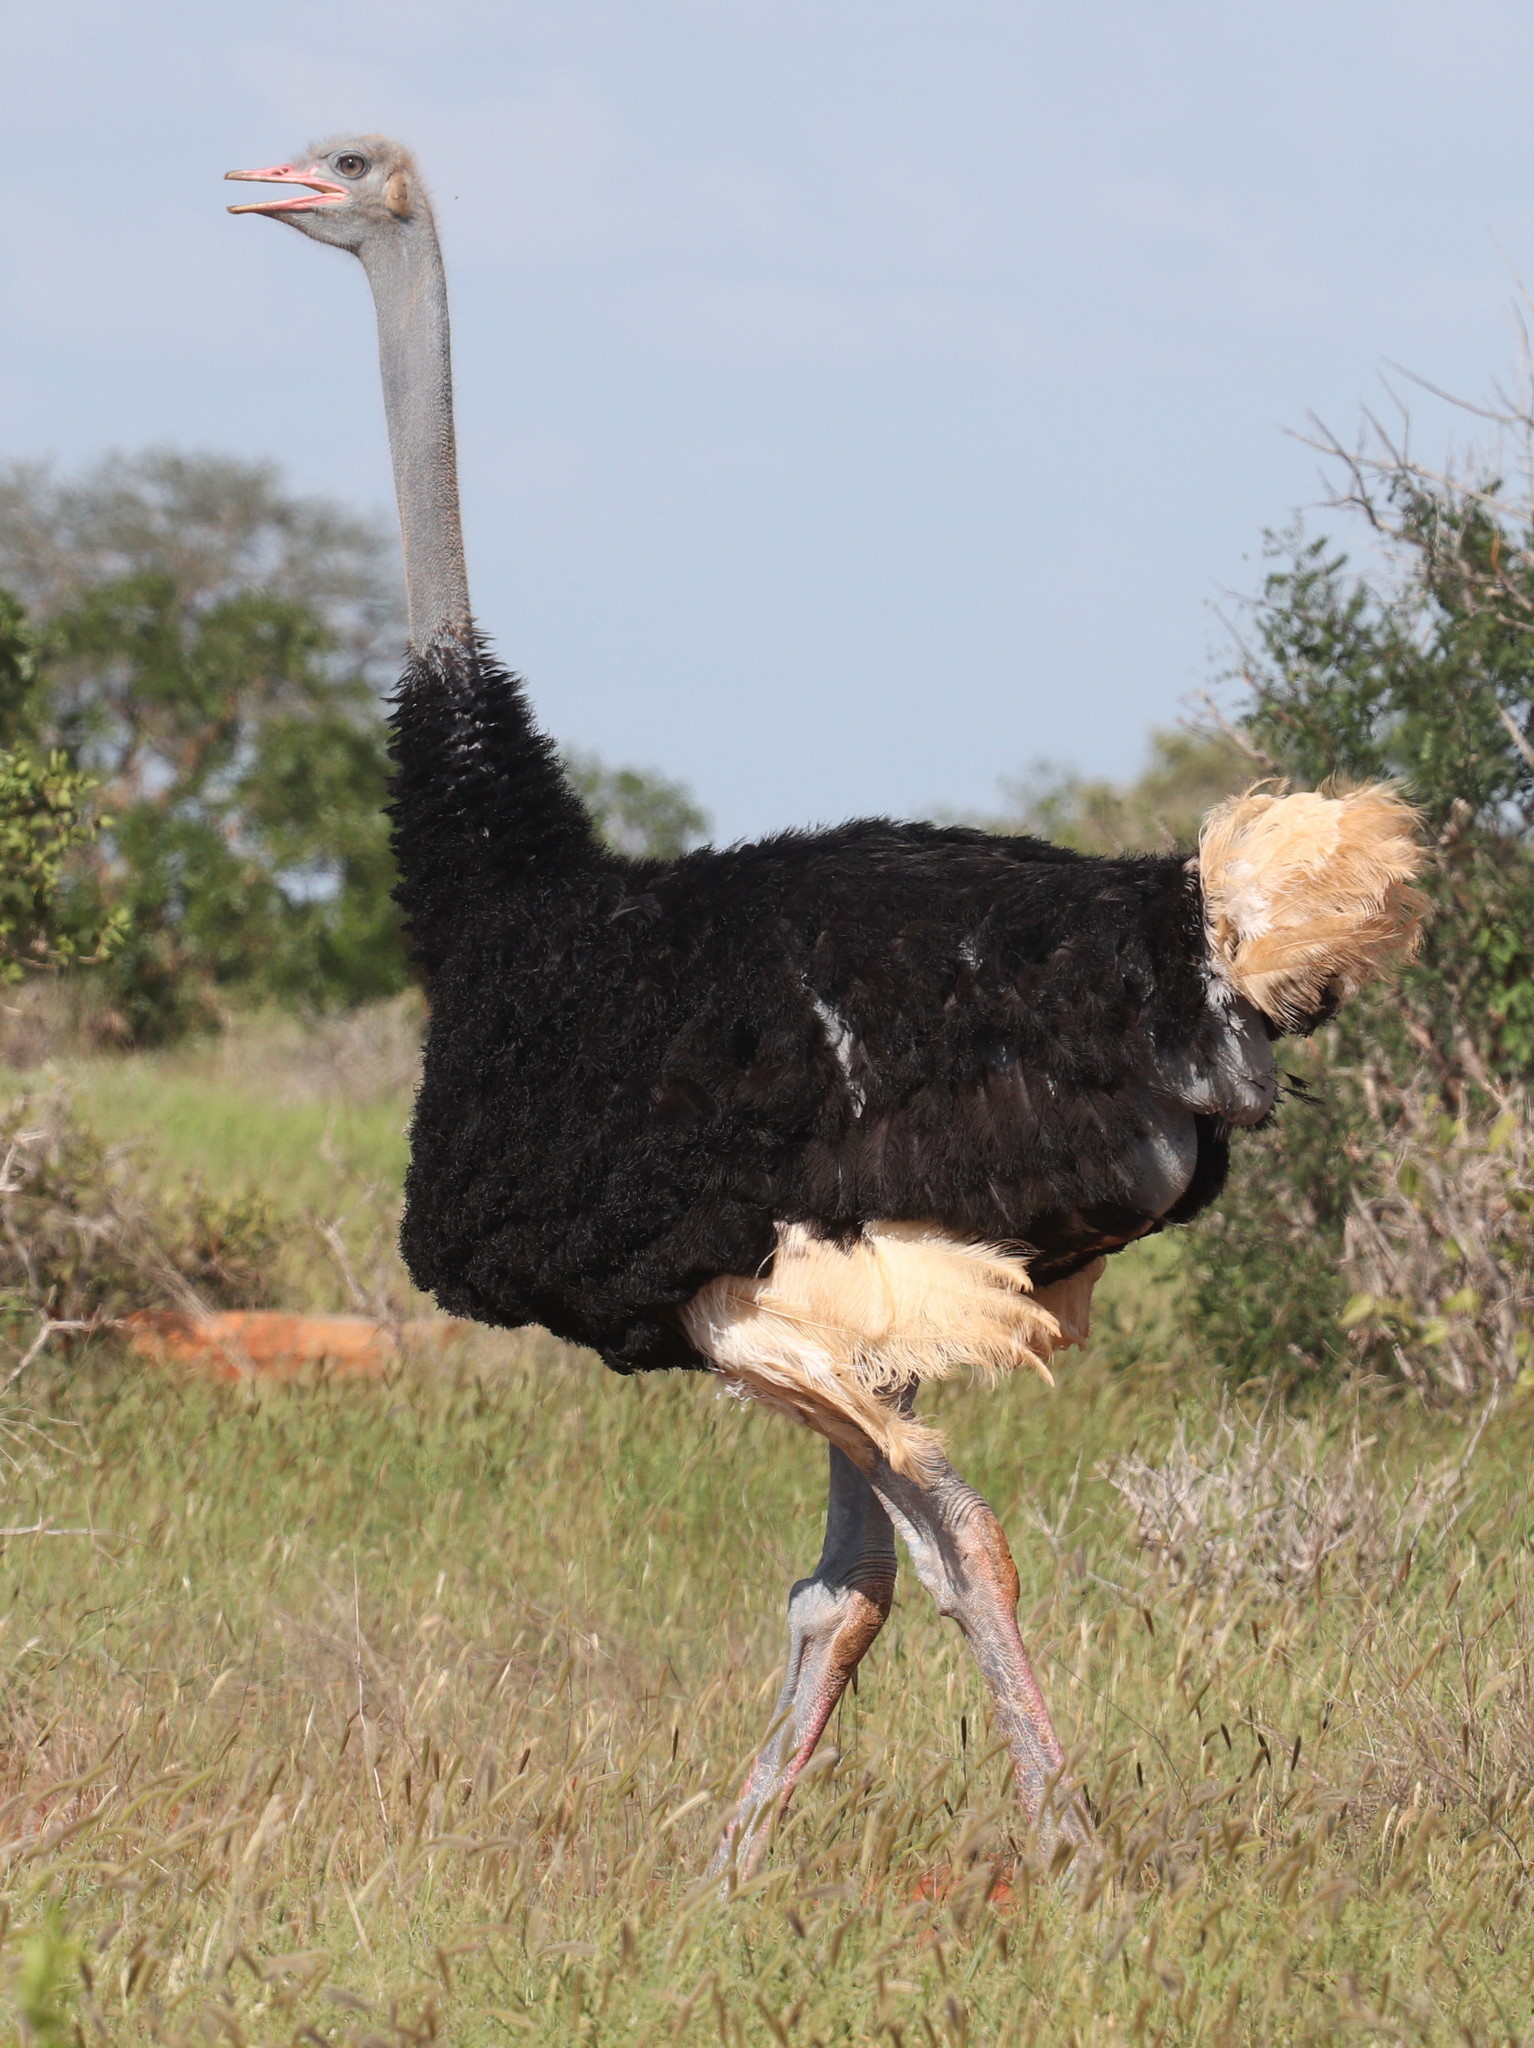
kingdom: Animalia
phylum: Chordata
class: Aves
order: Struthioniformes
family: Struthionidae
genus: Struthio
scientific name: Struthio molybdophanes
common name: Somali ostrich
